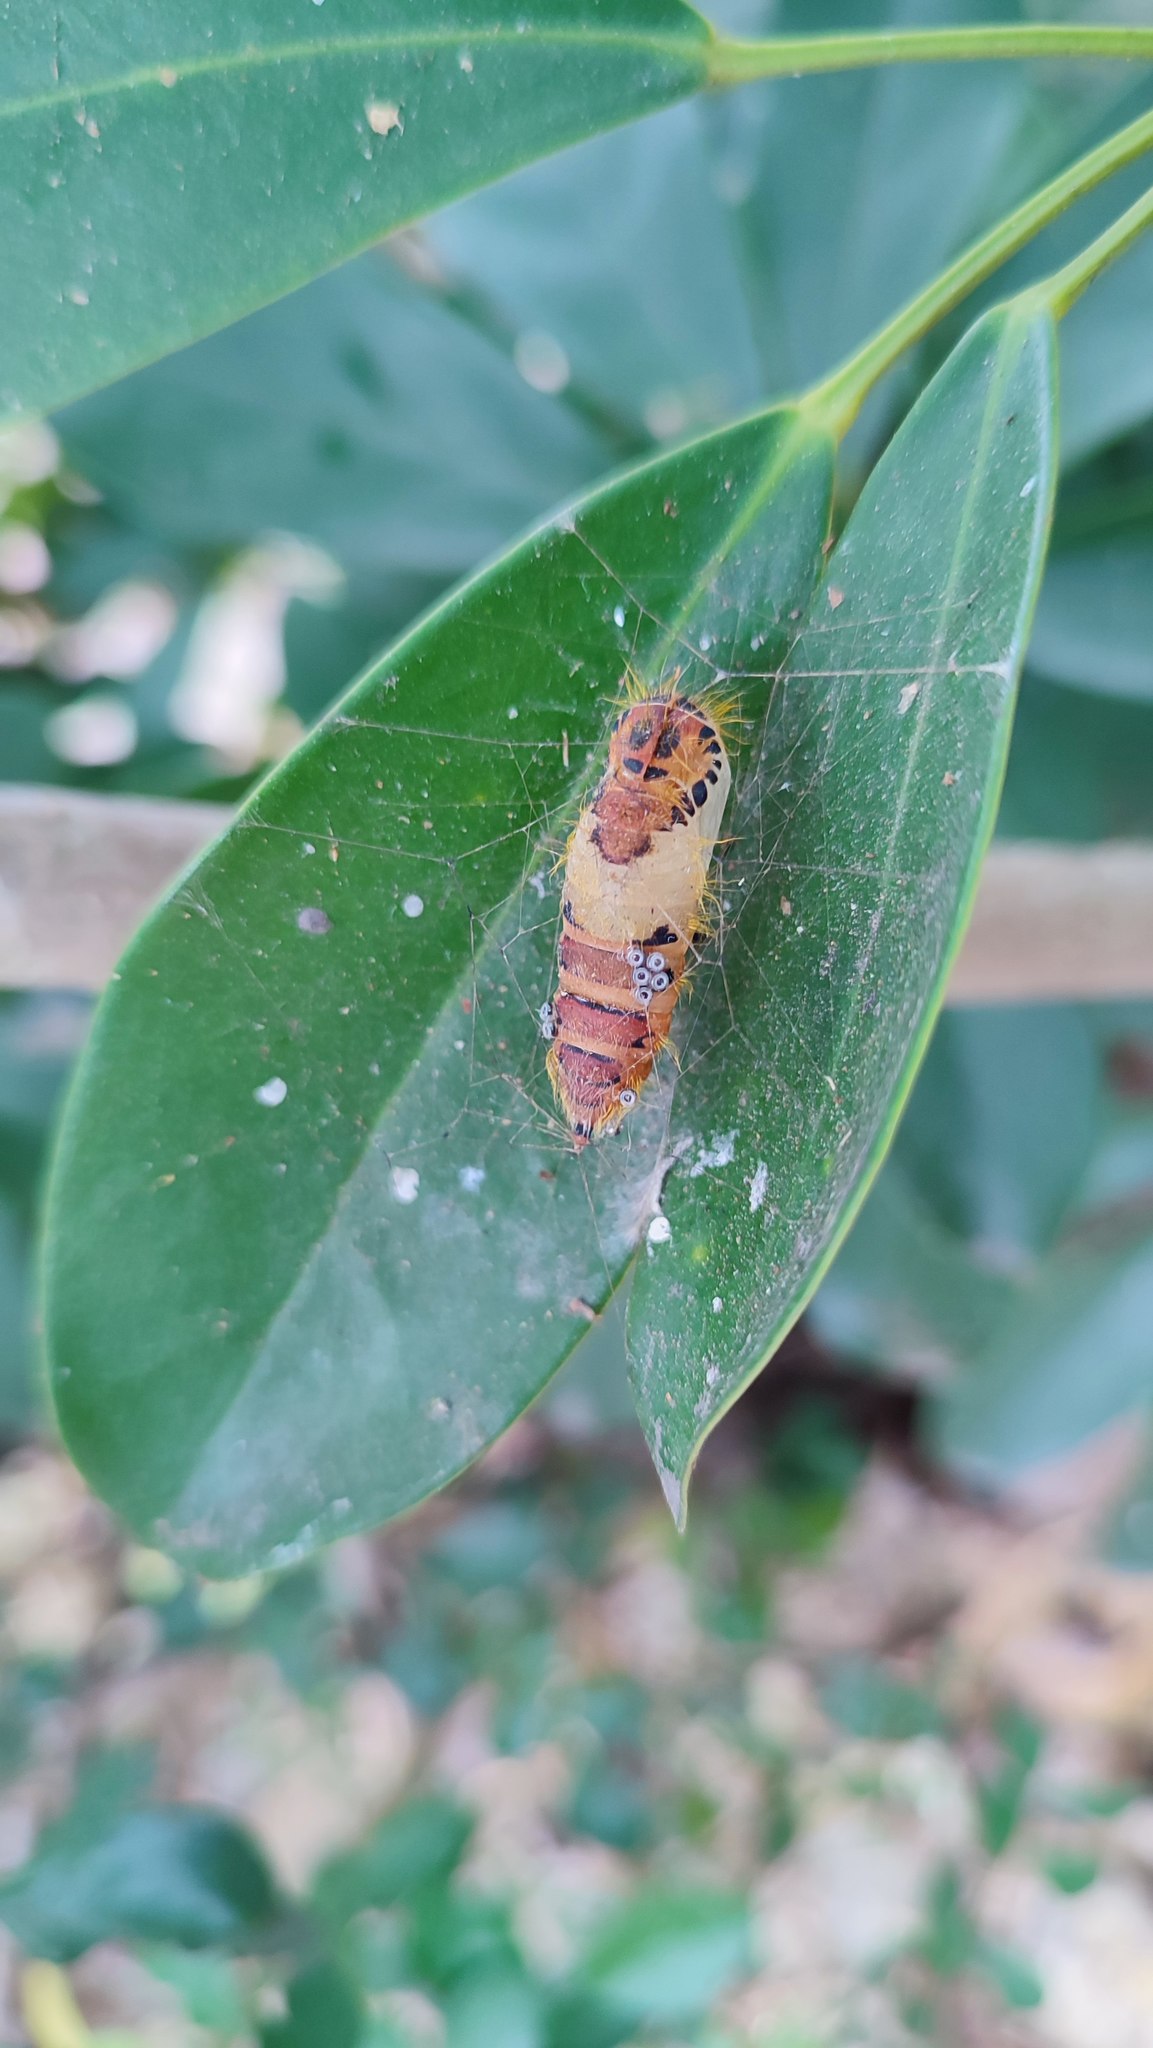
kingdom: Animalia
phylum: Arthropoda
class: Insecta
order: Lepidoptera
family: Erebidae
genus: Perina
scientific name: Perina nuda
